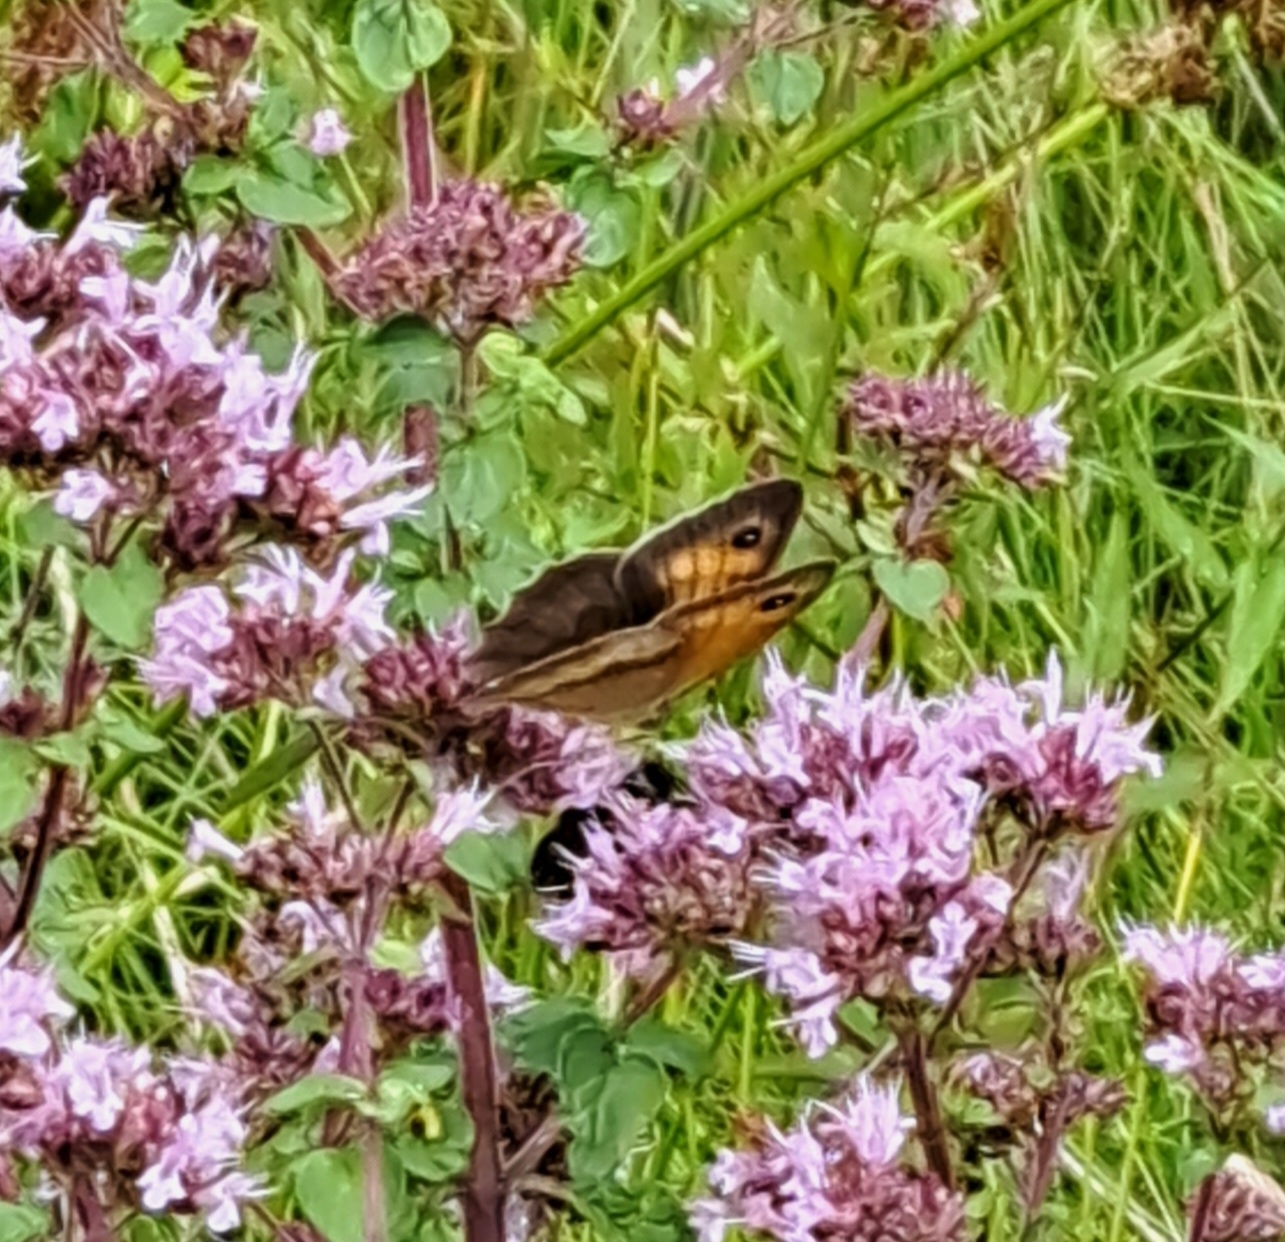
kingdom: Animalia
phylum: Arthropoda
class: Insecta
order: Lepidoptera
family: Nymphalidae
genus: Maniola
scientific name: Maniola jurtina
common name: Meadow brown
